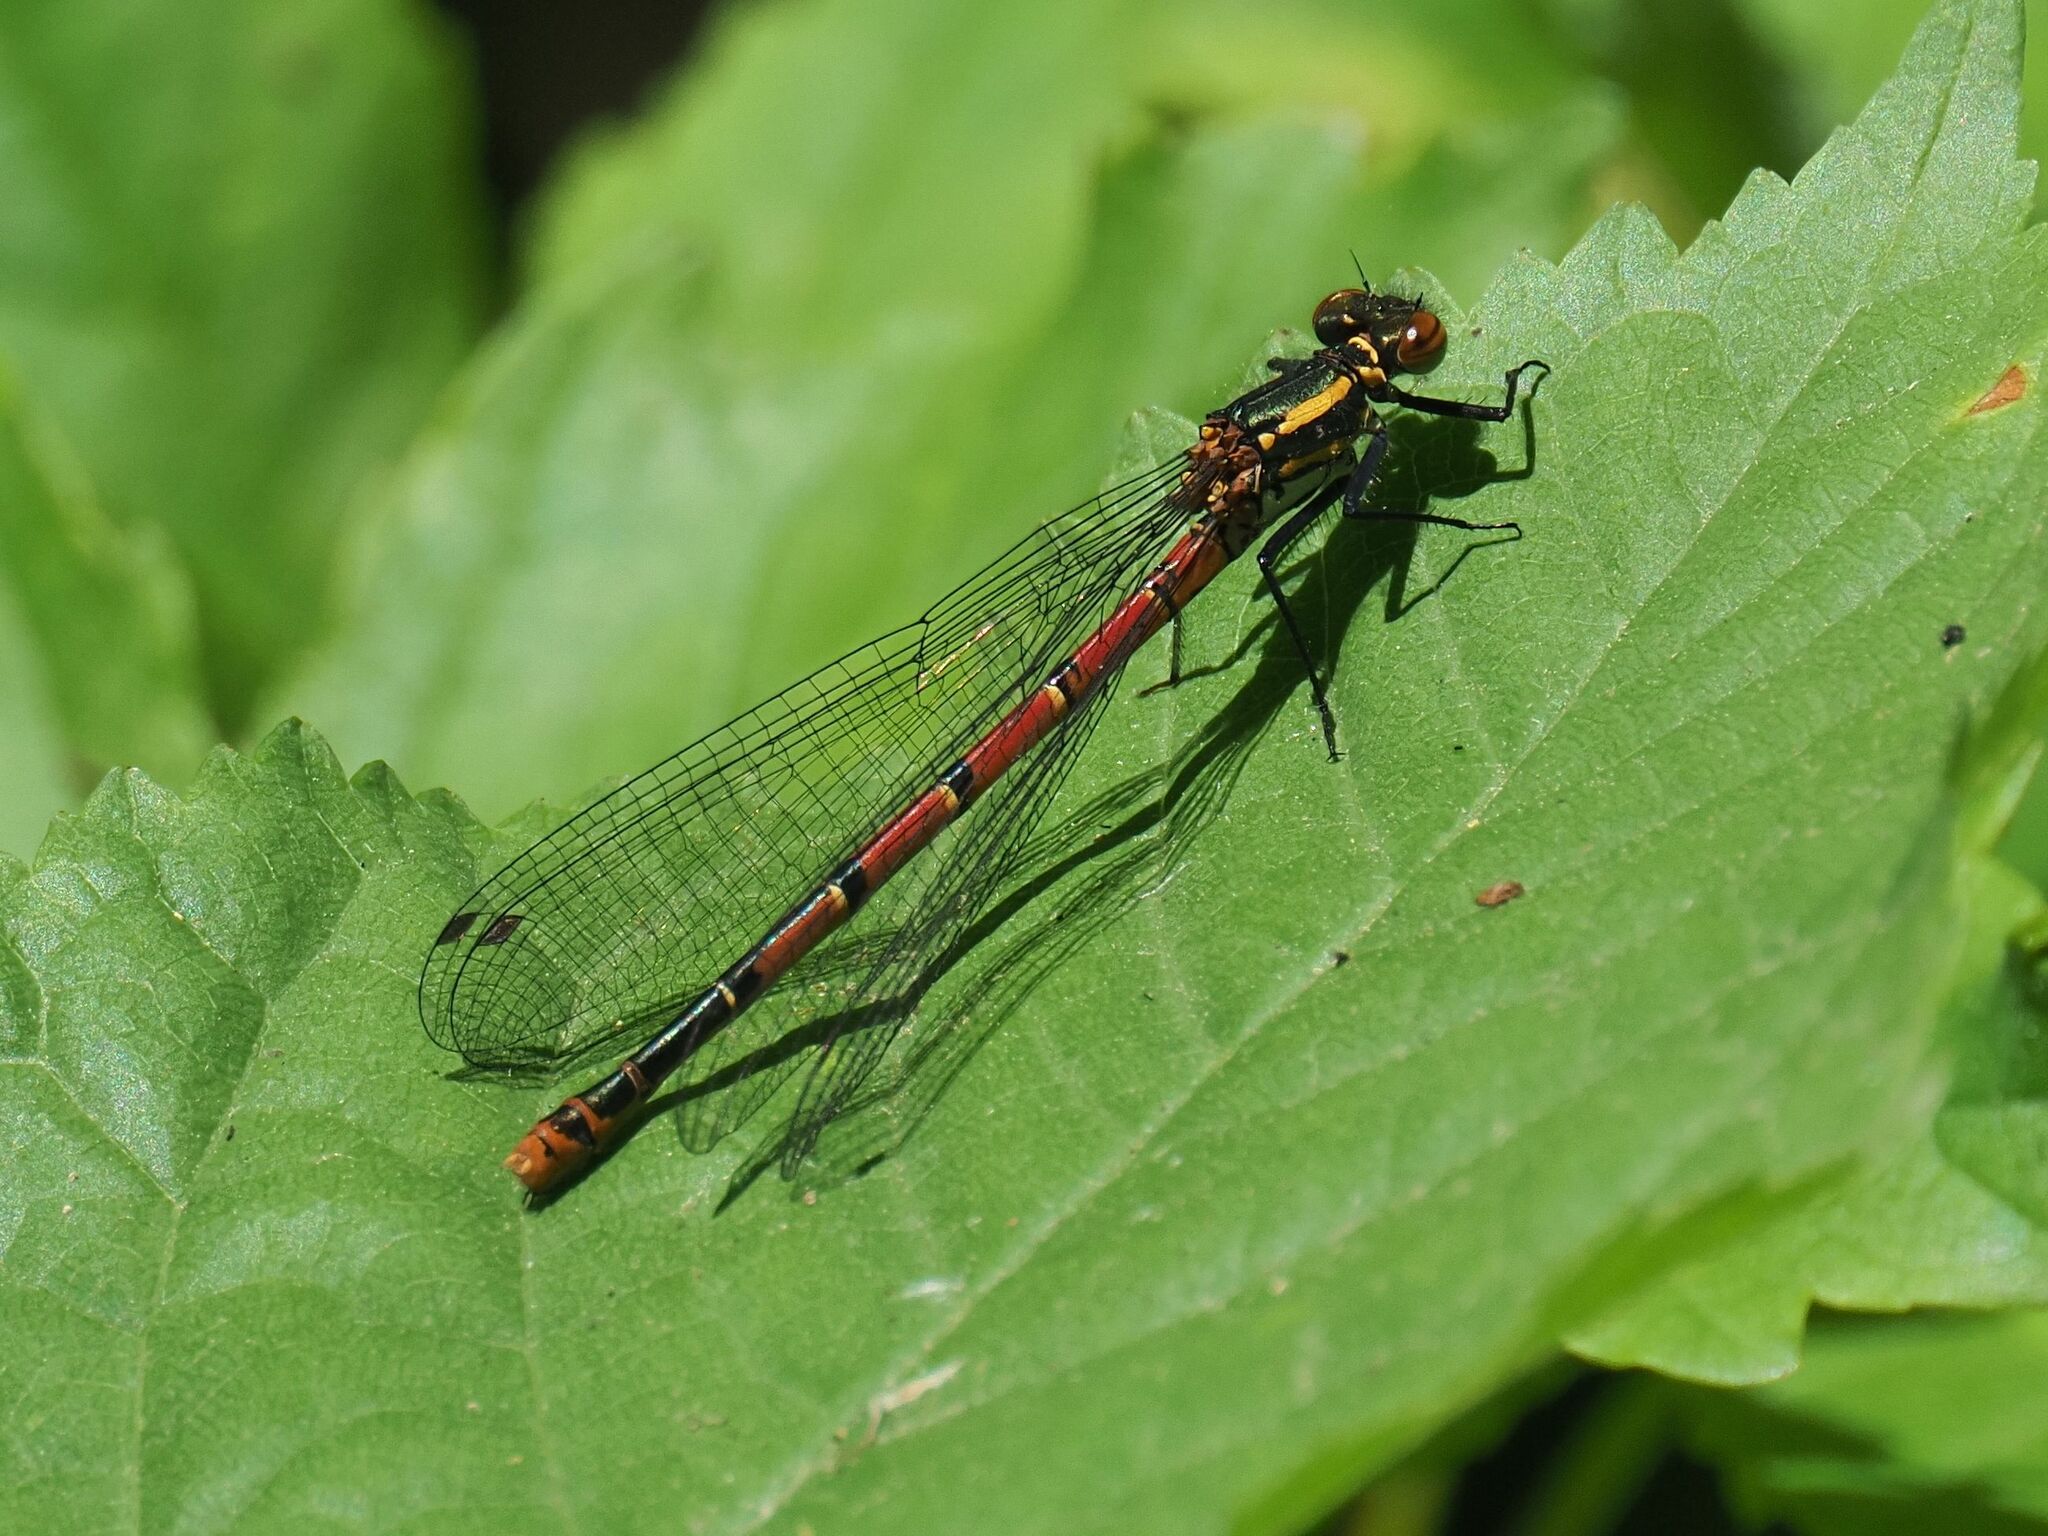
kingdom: Animalia
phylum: Arthropoda
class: Insecta
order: Odonata
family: Coenagrionidae
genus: Pyrrhosoma
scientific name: Pyrrhosoma nymphula
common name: Large red damsel
